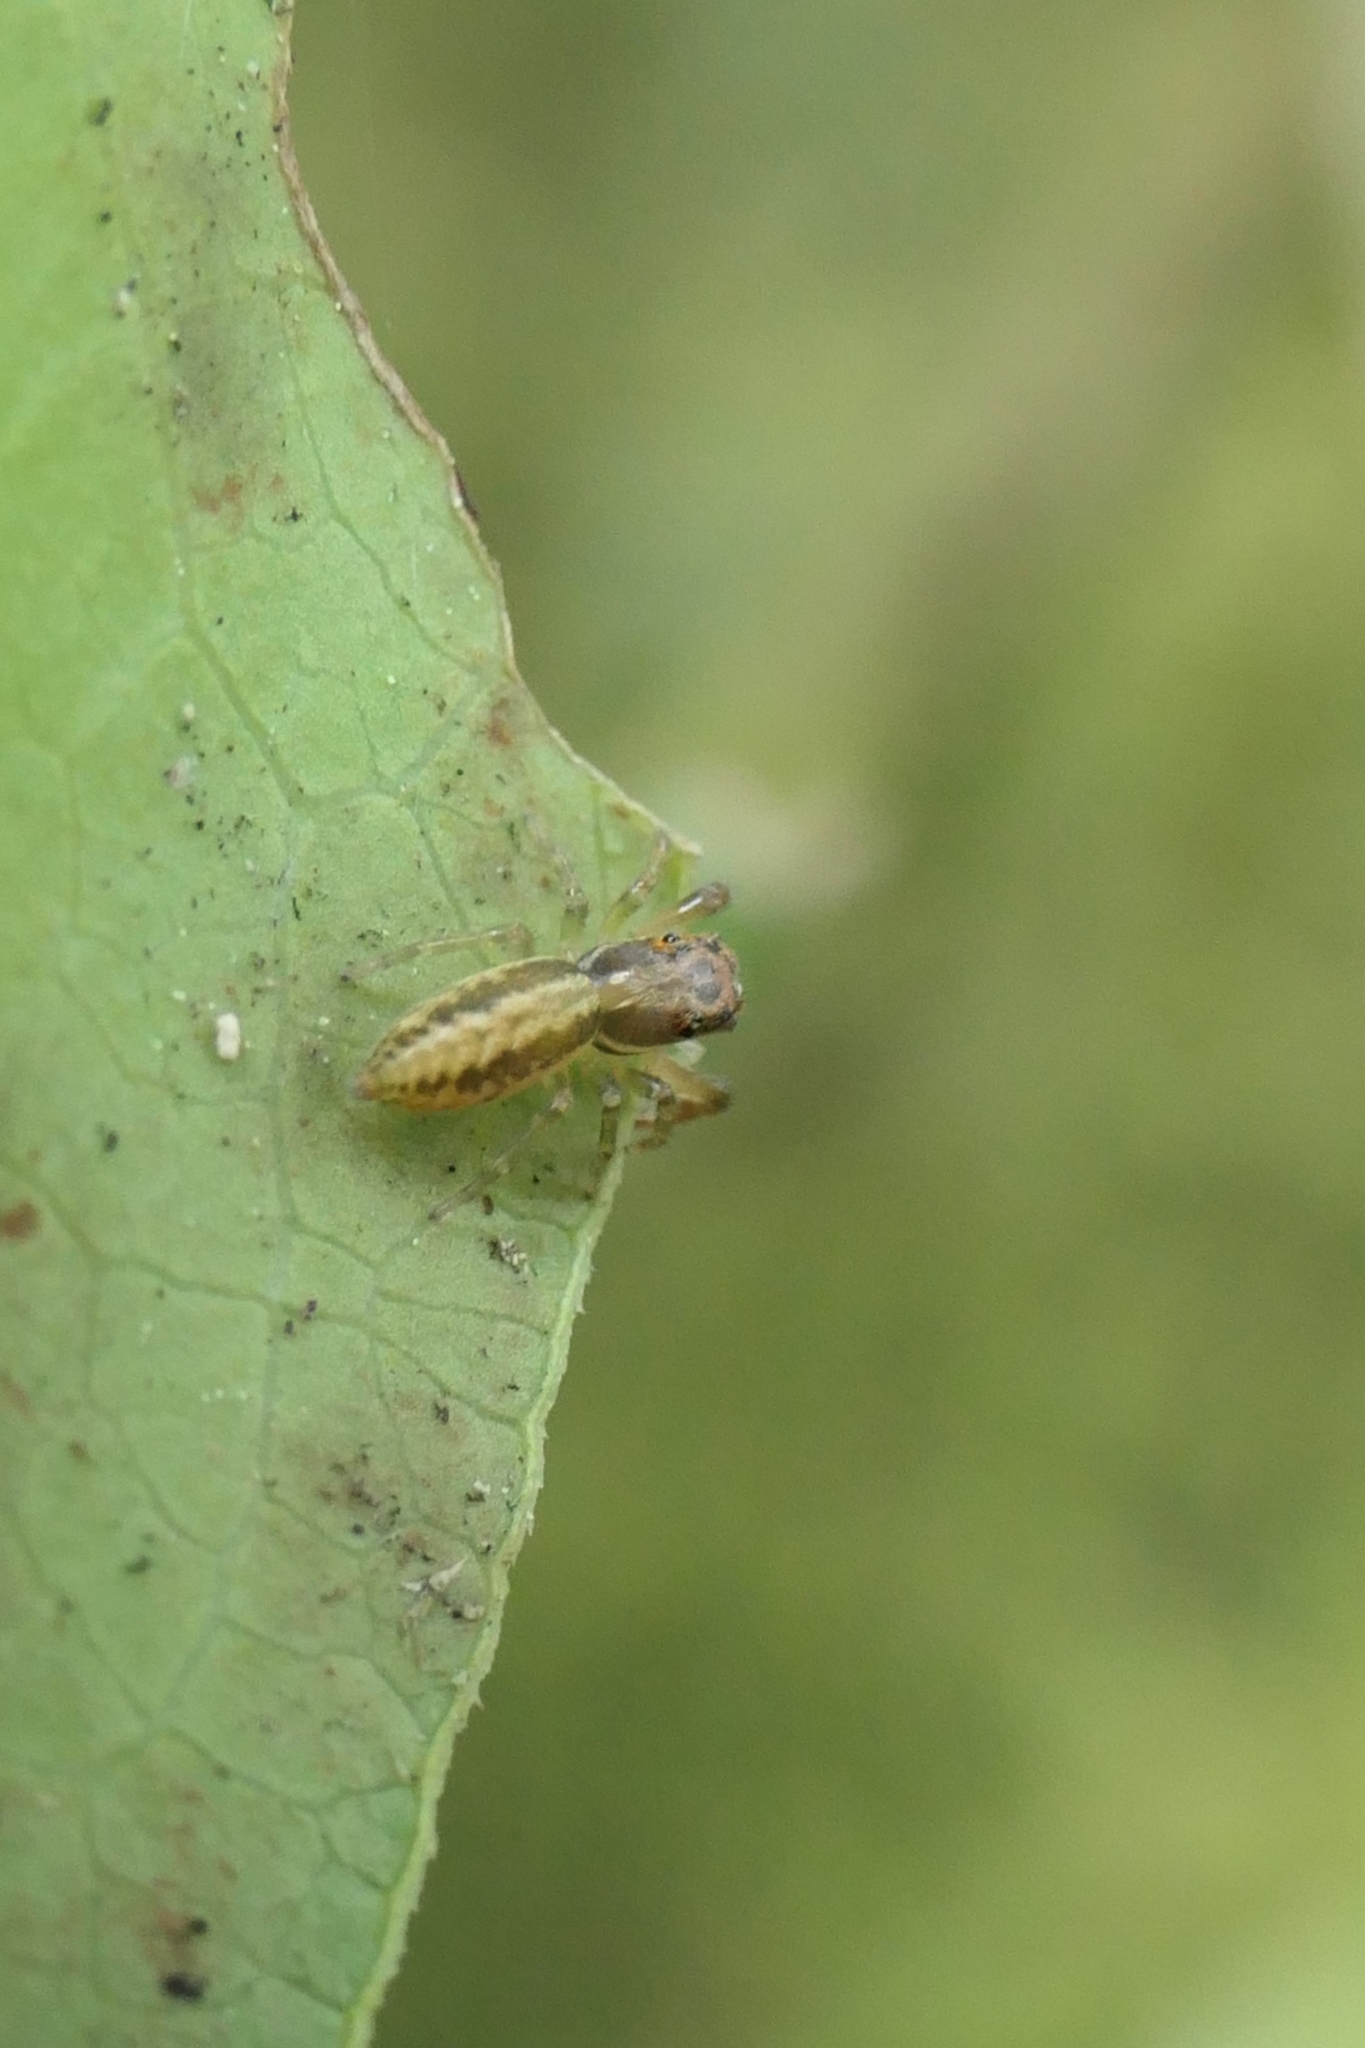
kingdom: Animalia
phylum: Arthropoda
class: Arachnida
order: Araneae
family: Salticidae
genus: Trite
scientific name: Trite mustilina
